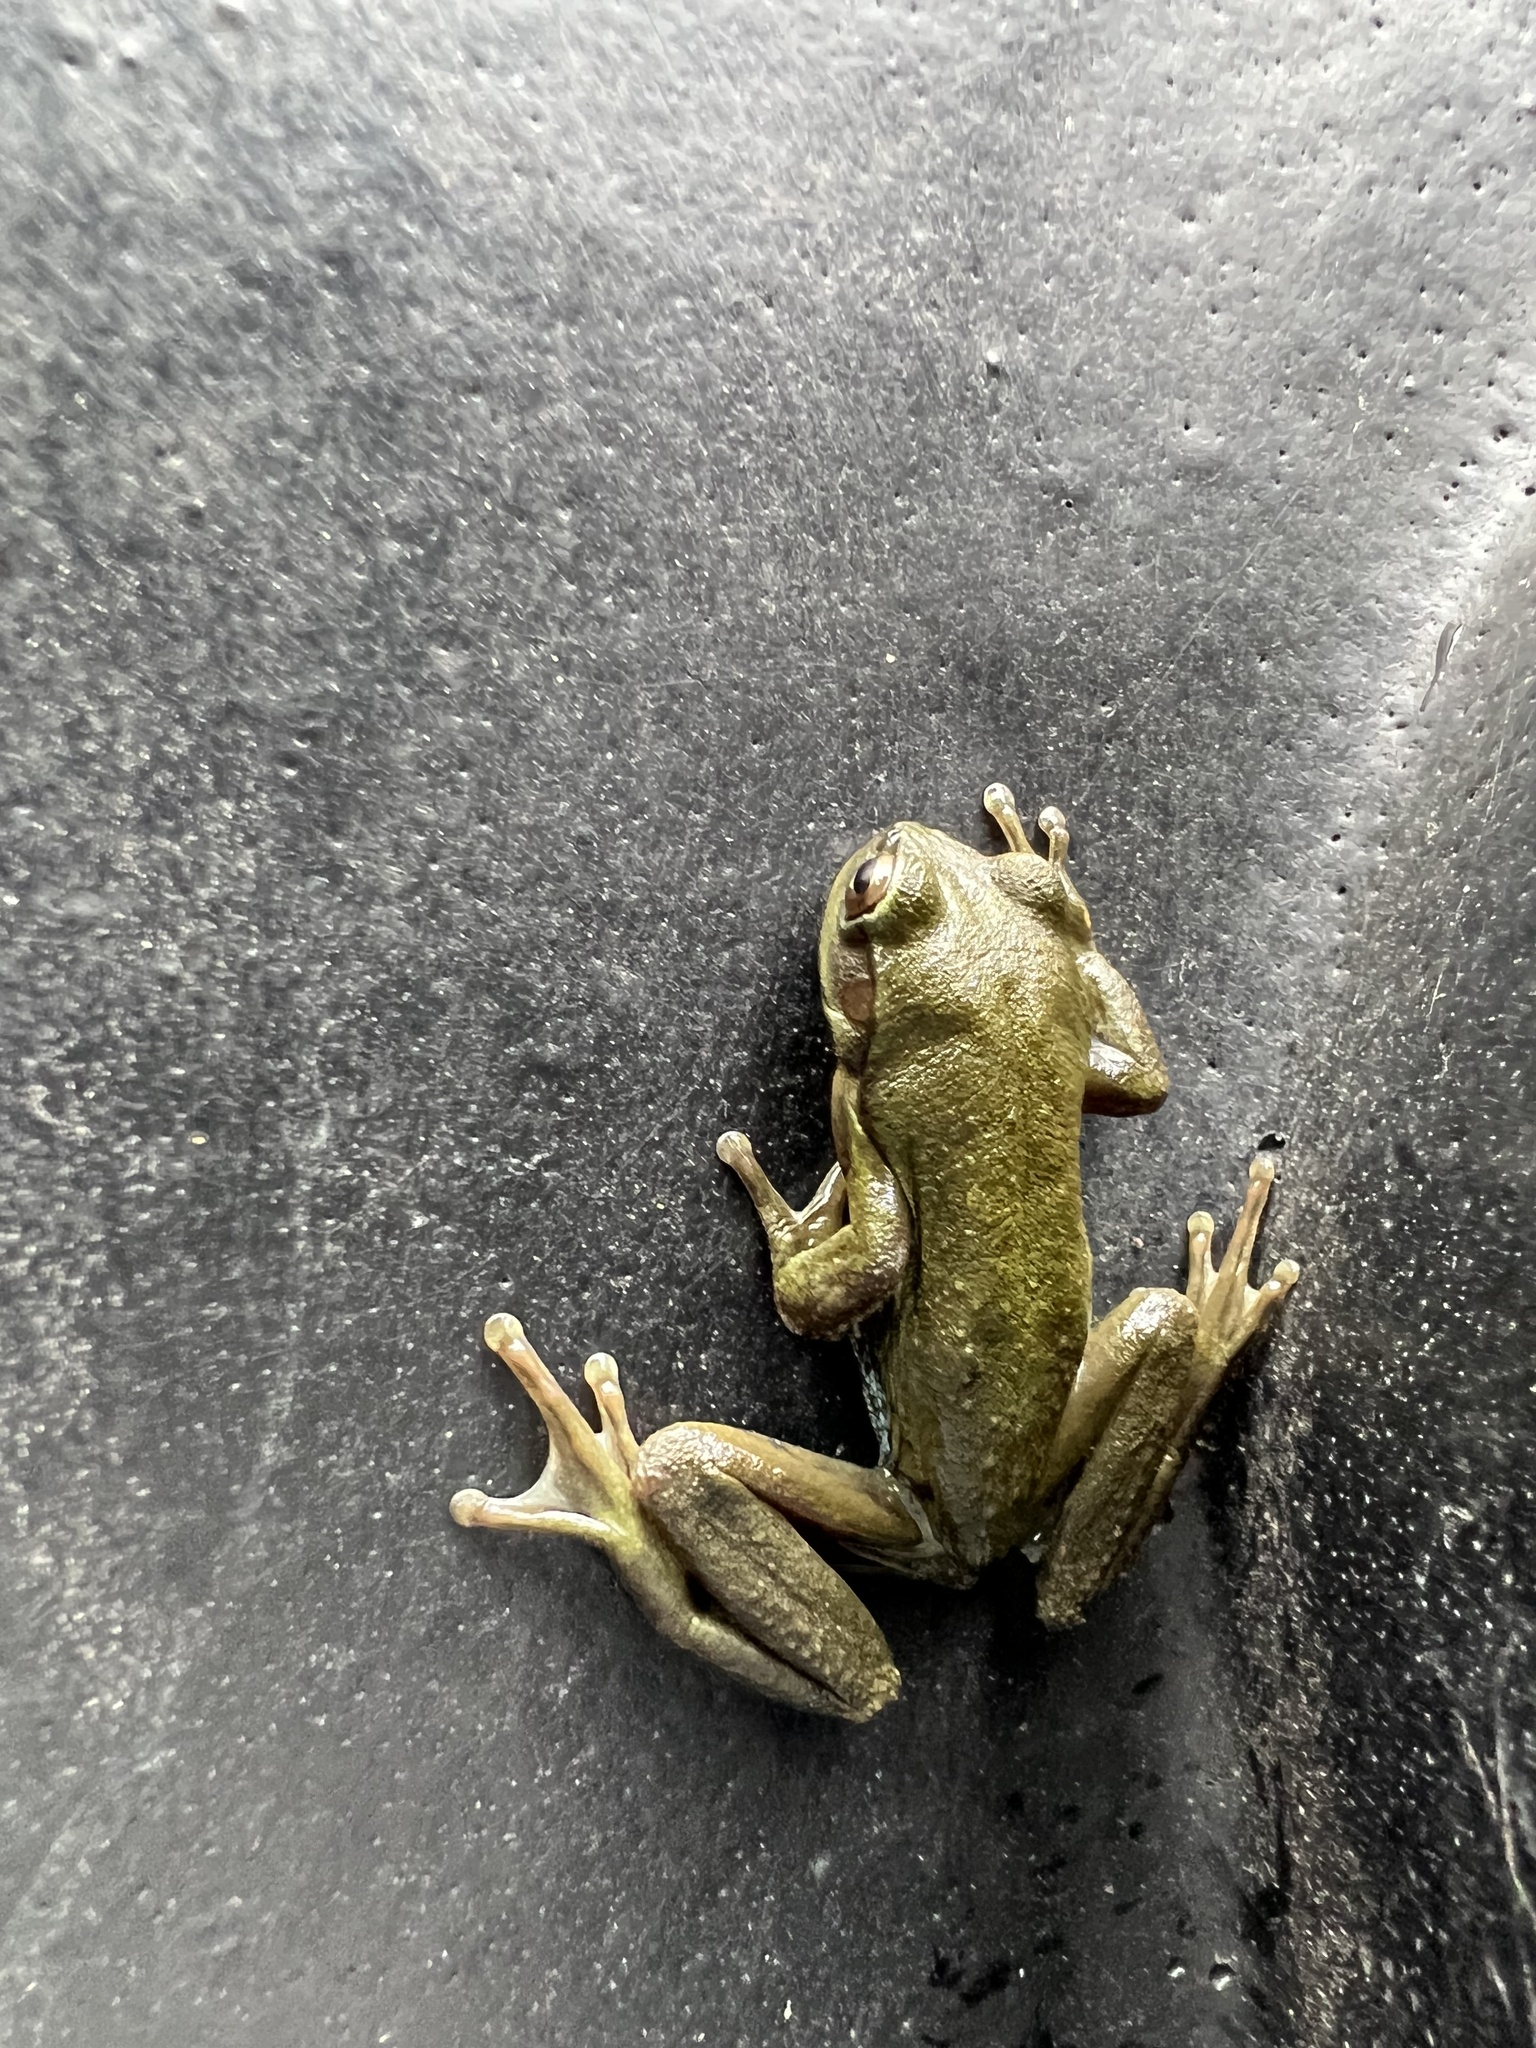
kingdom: Animalia
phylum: Chordata
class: Amphibia
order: Anura
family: Hylidae
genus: Dendropsophus
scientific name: Dendropsophus molitor
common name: Green dotted treefrog
